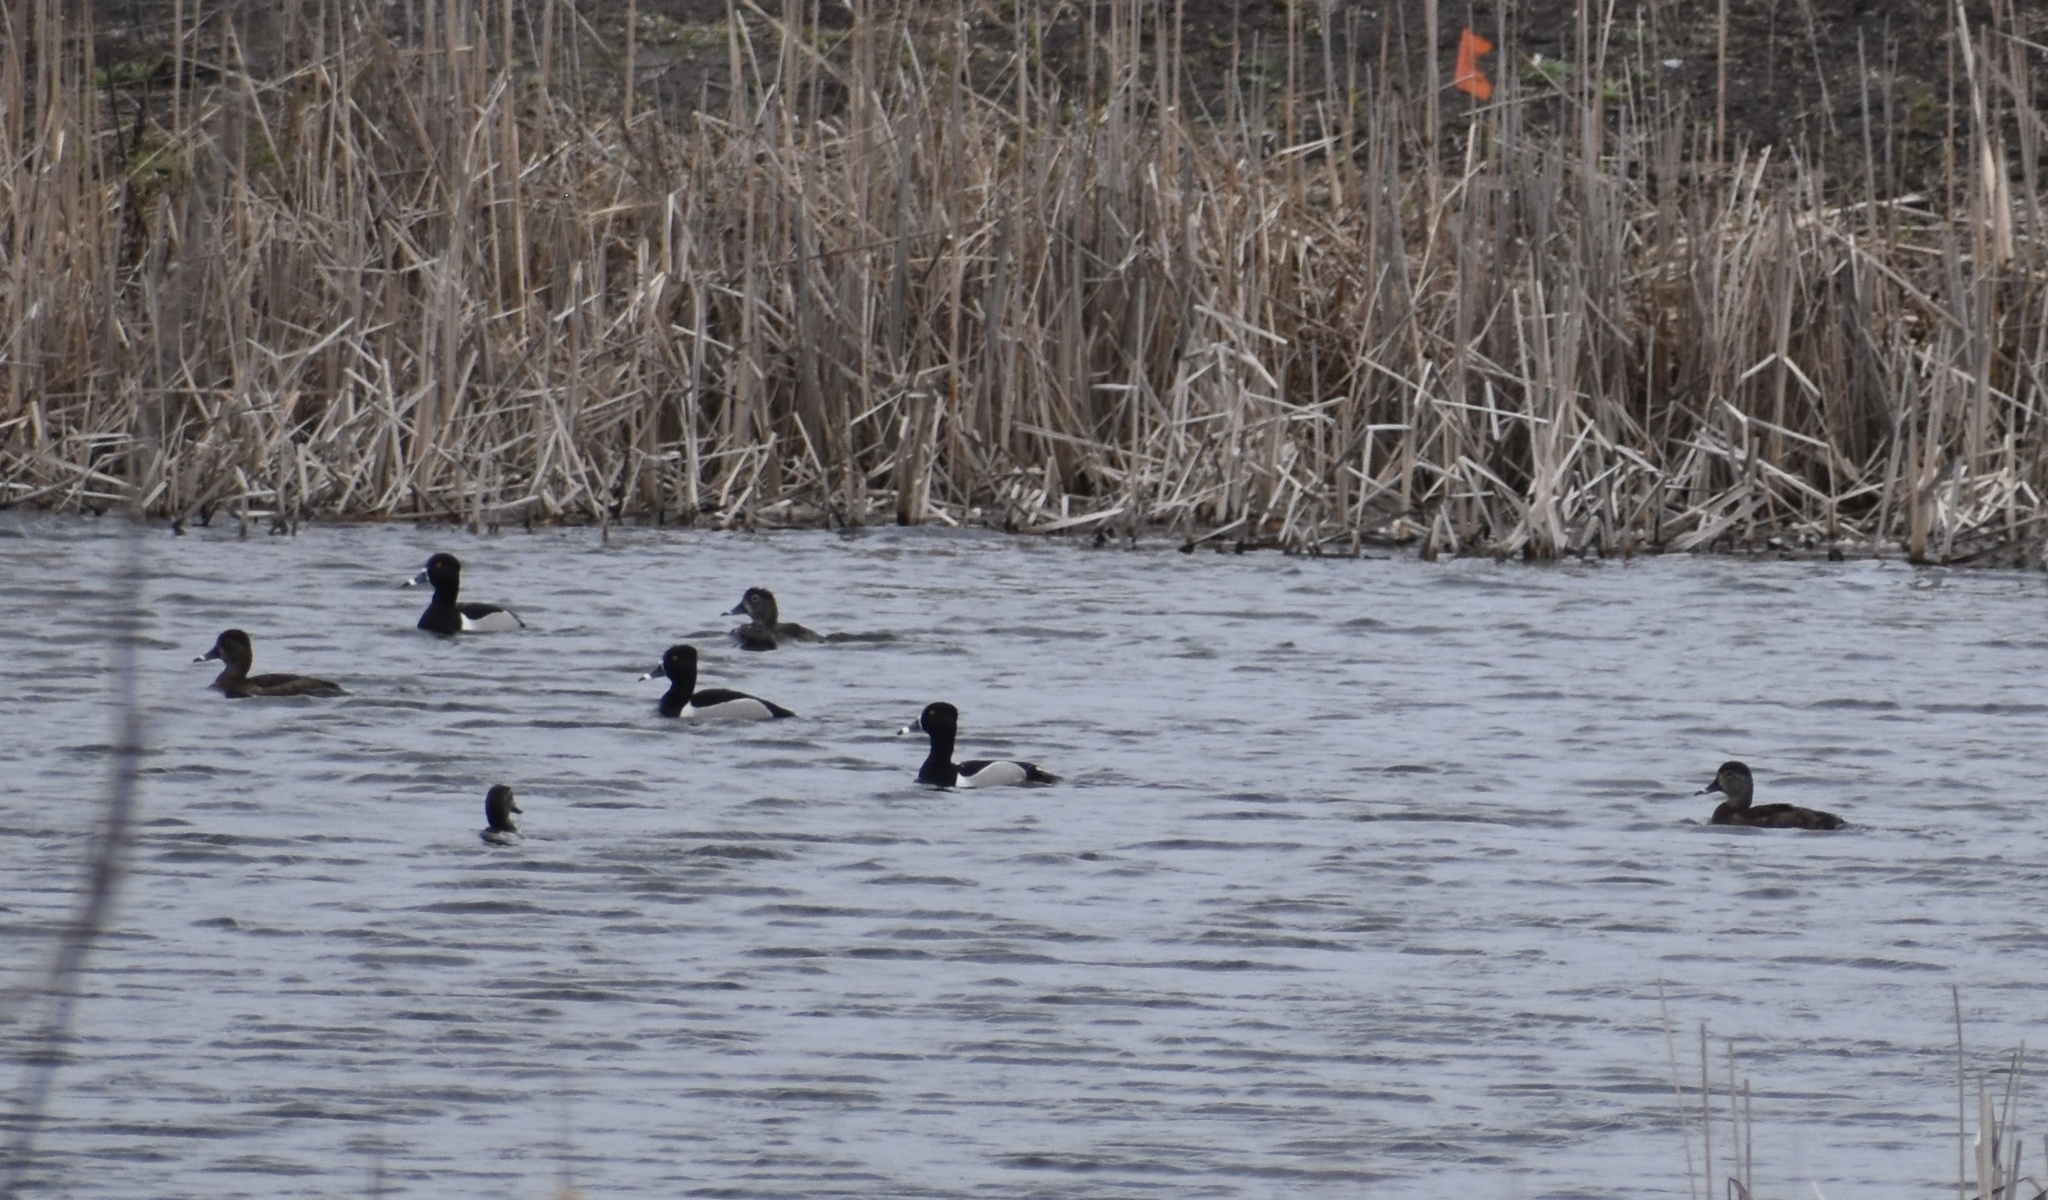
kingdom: Animalia
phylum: Chordata
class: Aves
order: Anseriformes
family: Anatidae
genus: Aythya
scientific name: Aythya collaris
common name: Ring-necked duck
